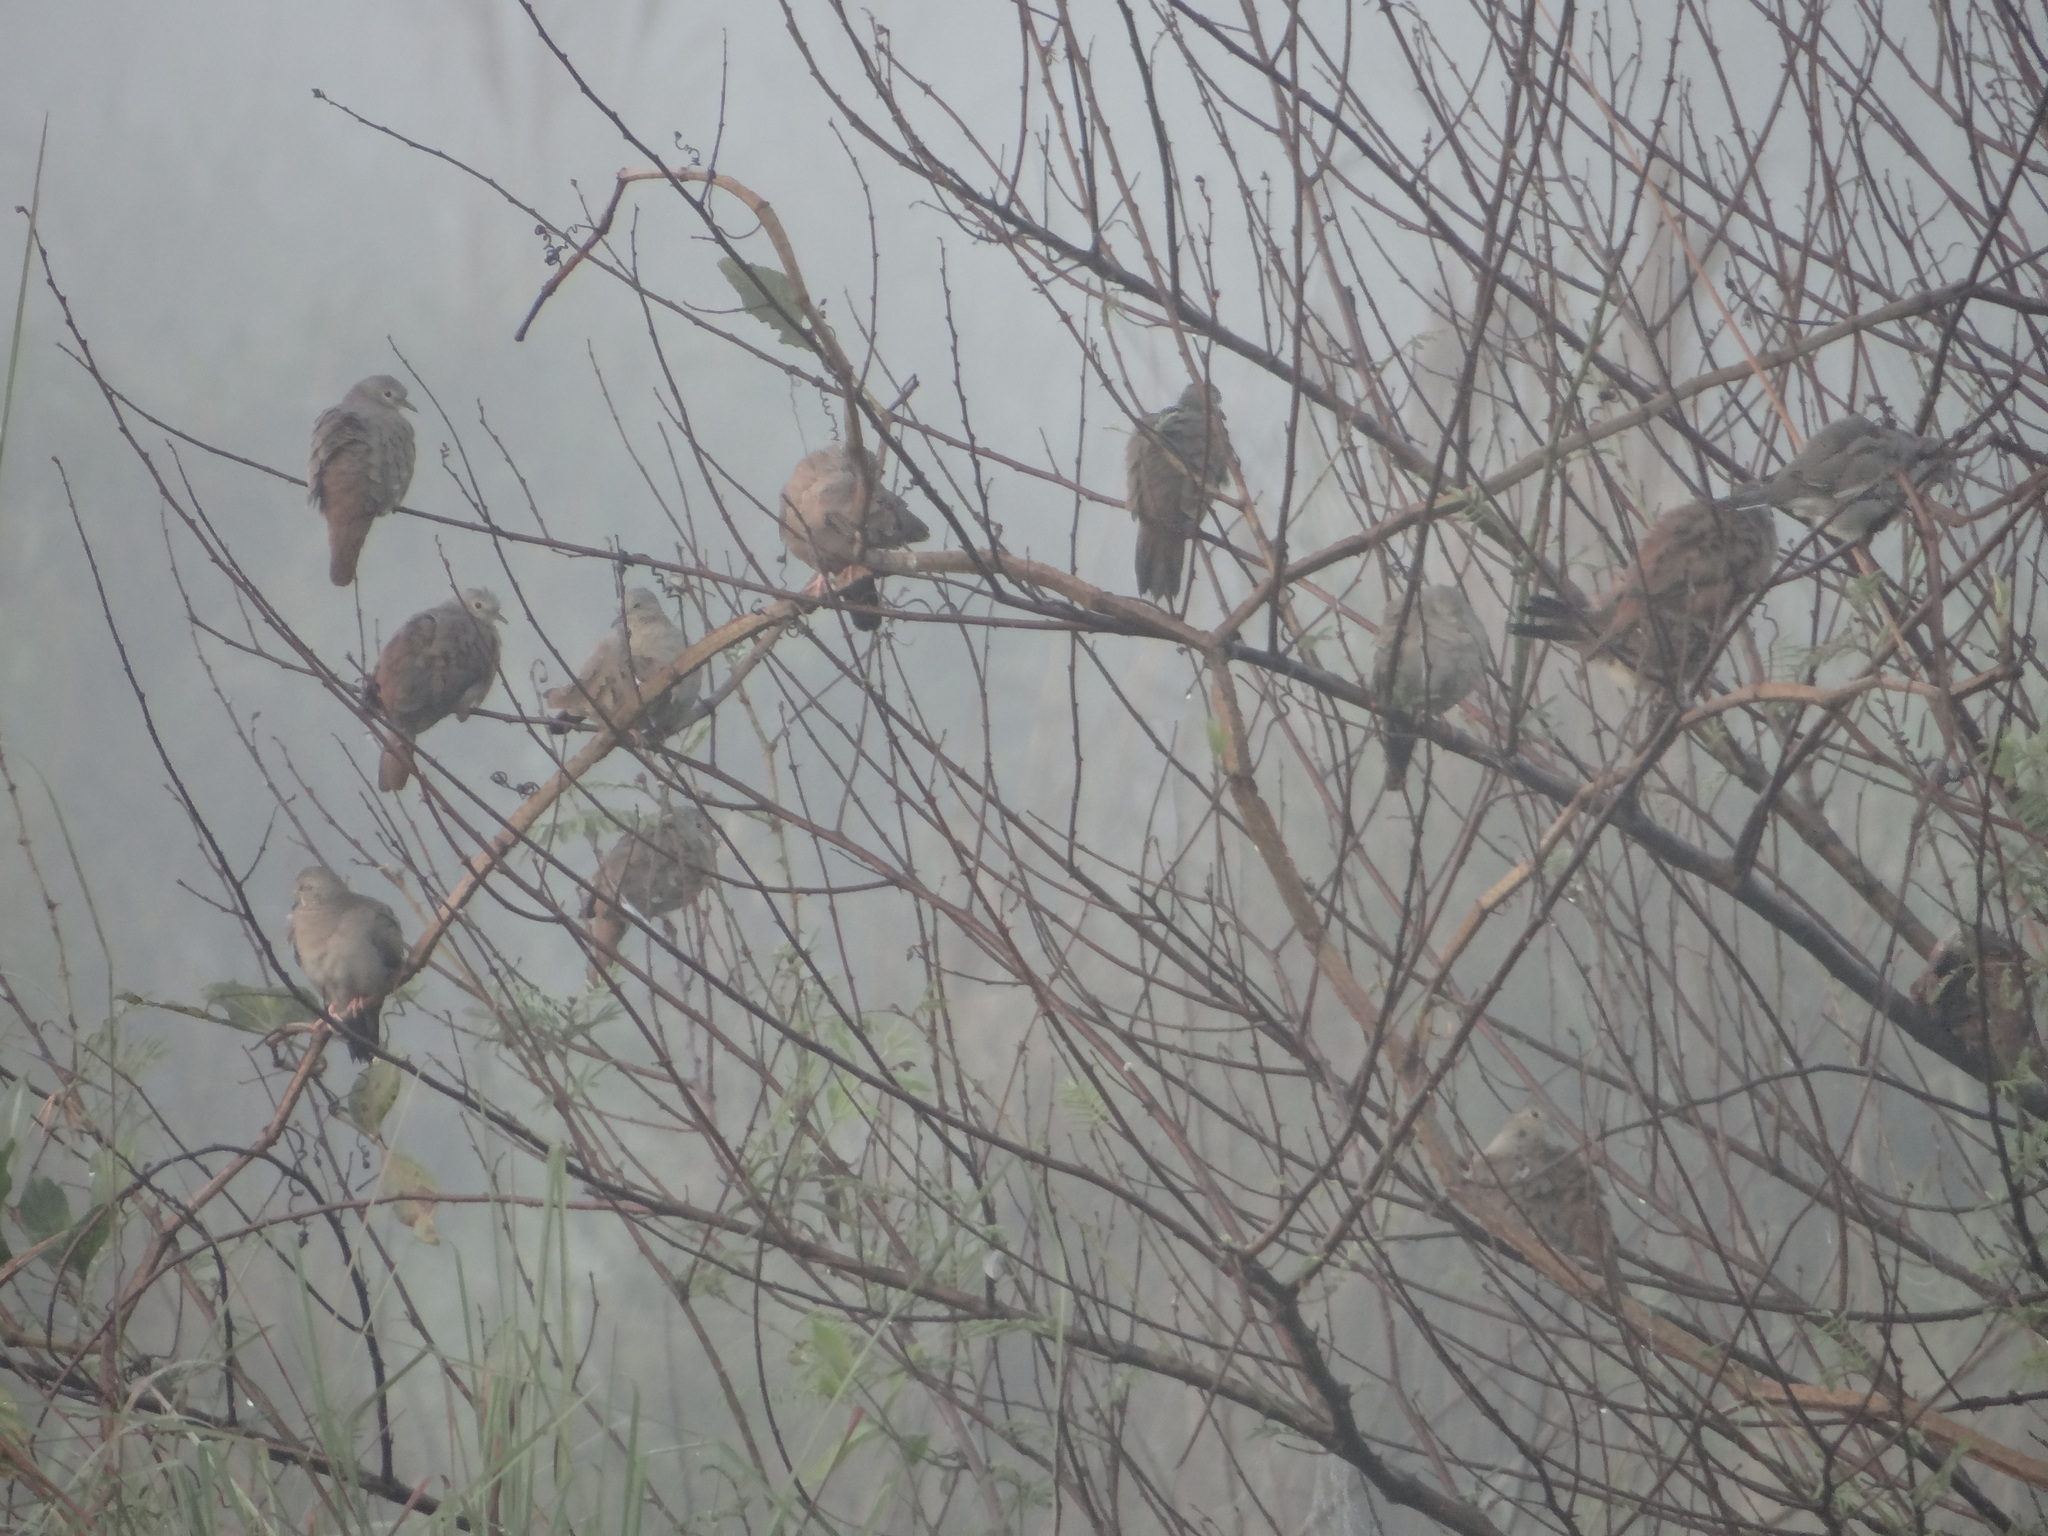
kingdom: Animalia
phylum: Chordata
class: Aves
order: Columbiformes
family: Columbidae
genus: Columbina
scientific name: Columbina talpacoti
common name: Ruddy ground dove
